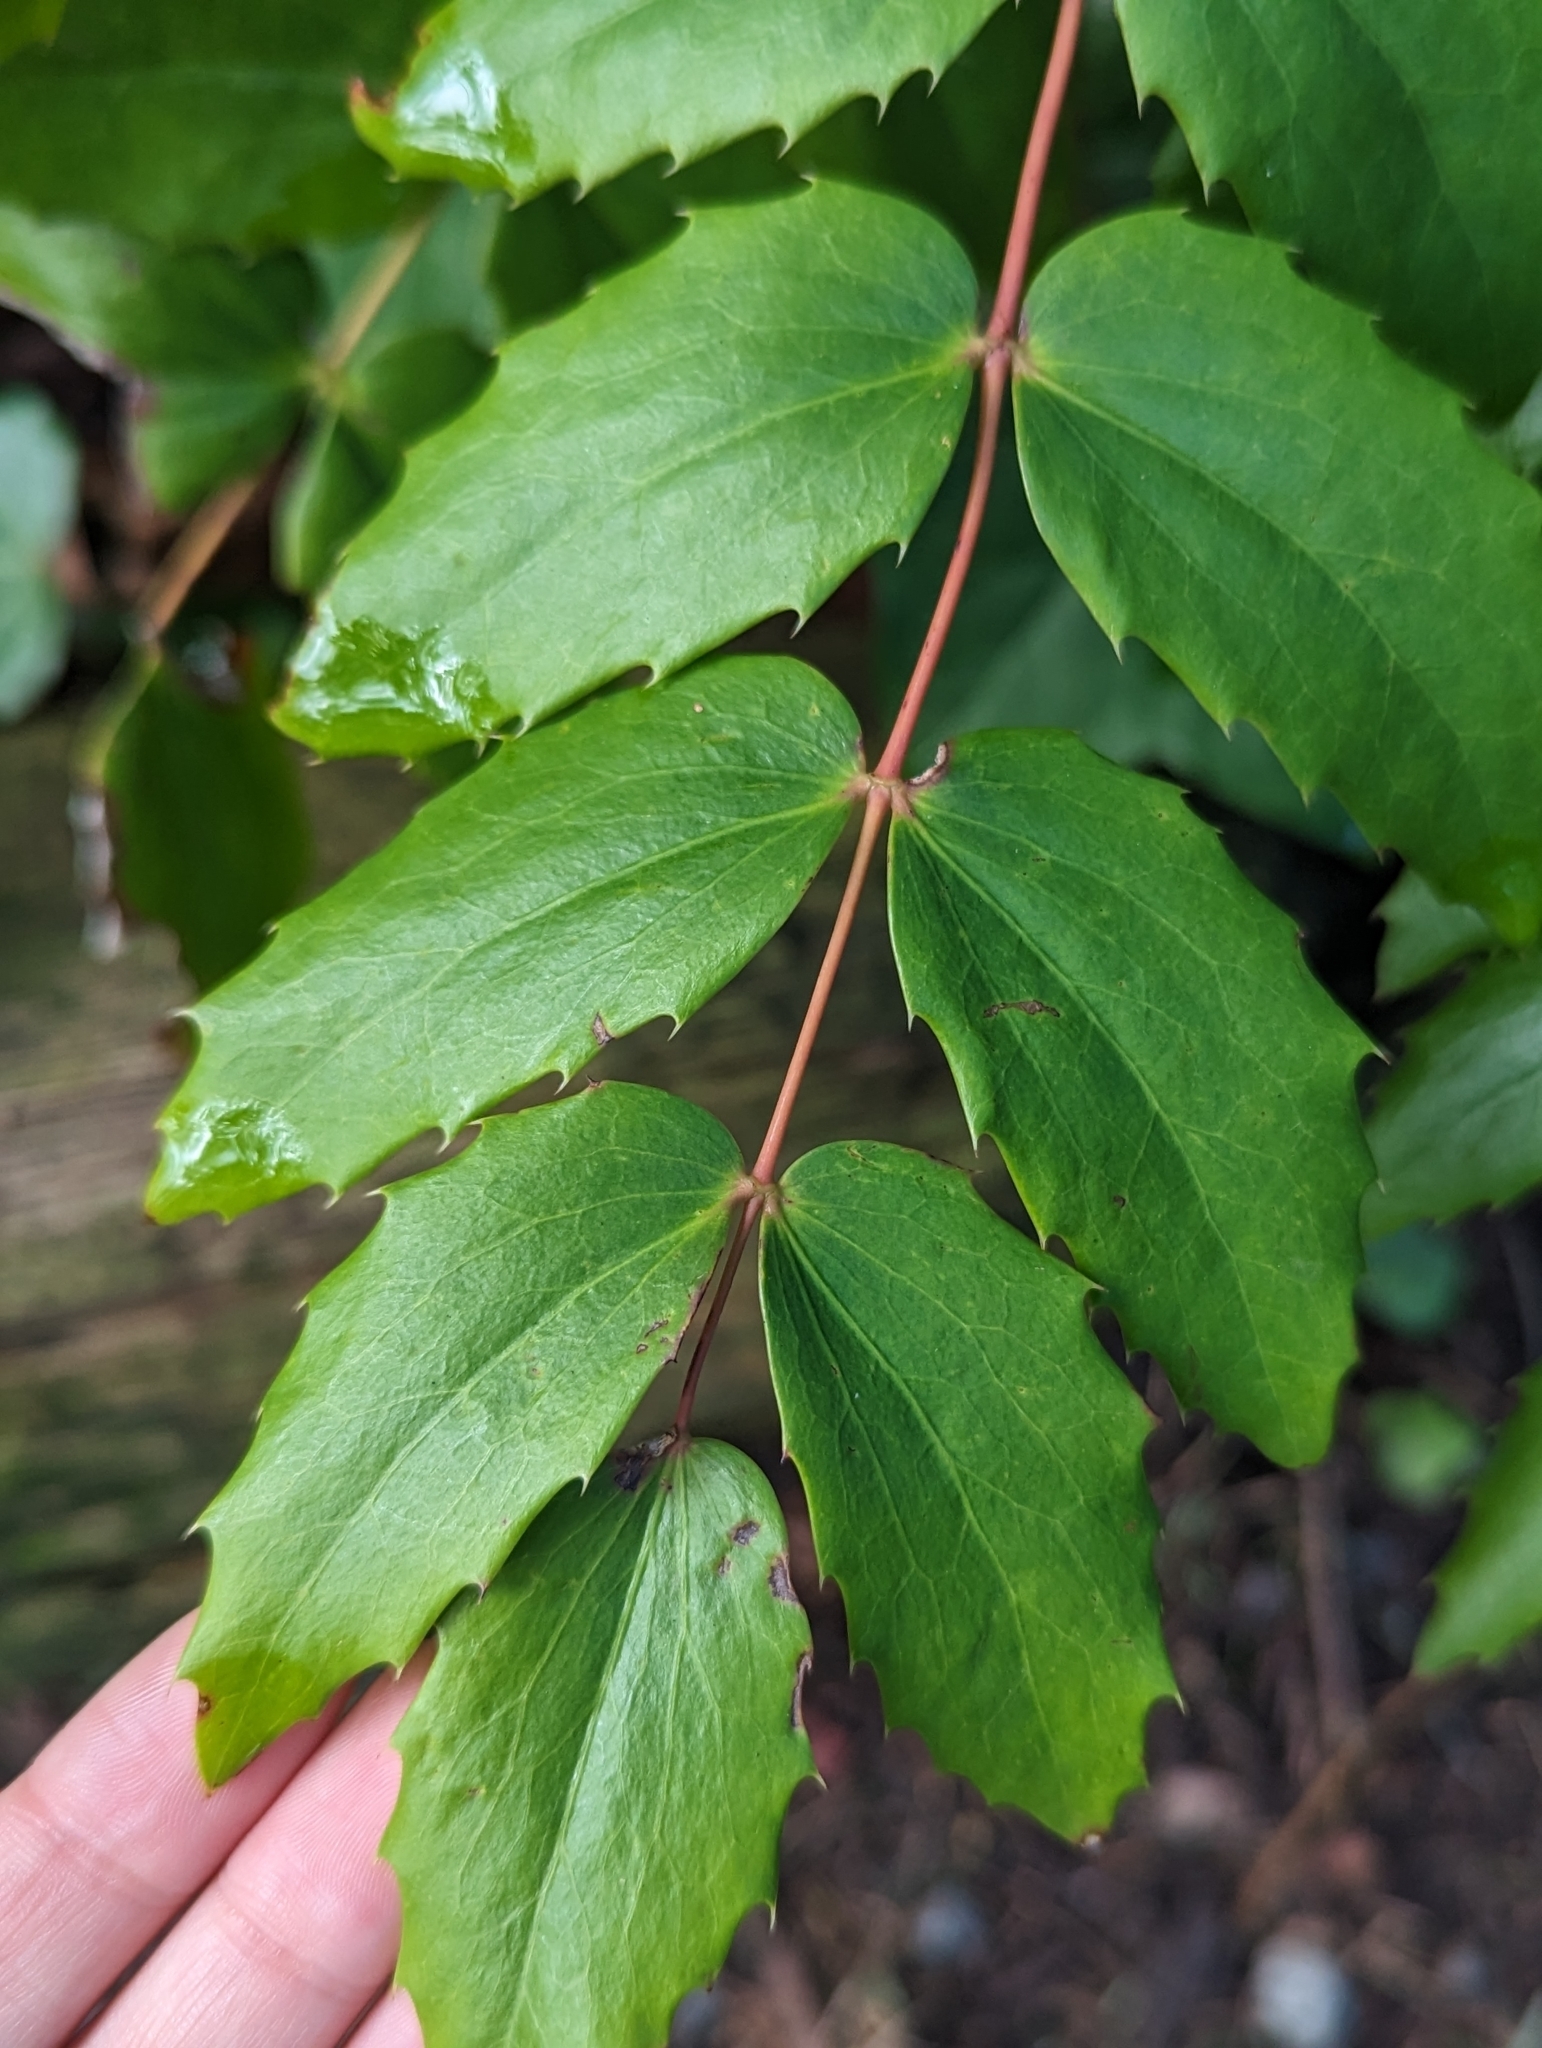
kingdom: Plantae
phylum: Tracheophyta
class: Magnoliopsida
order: Ranunculales
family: Berberidaceae
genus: Mahonia
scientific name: Mahonia nervosa
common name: Cascade oregon-grape
